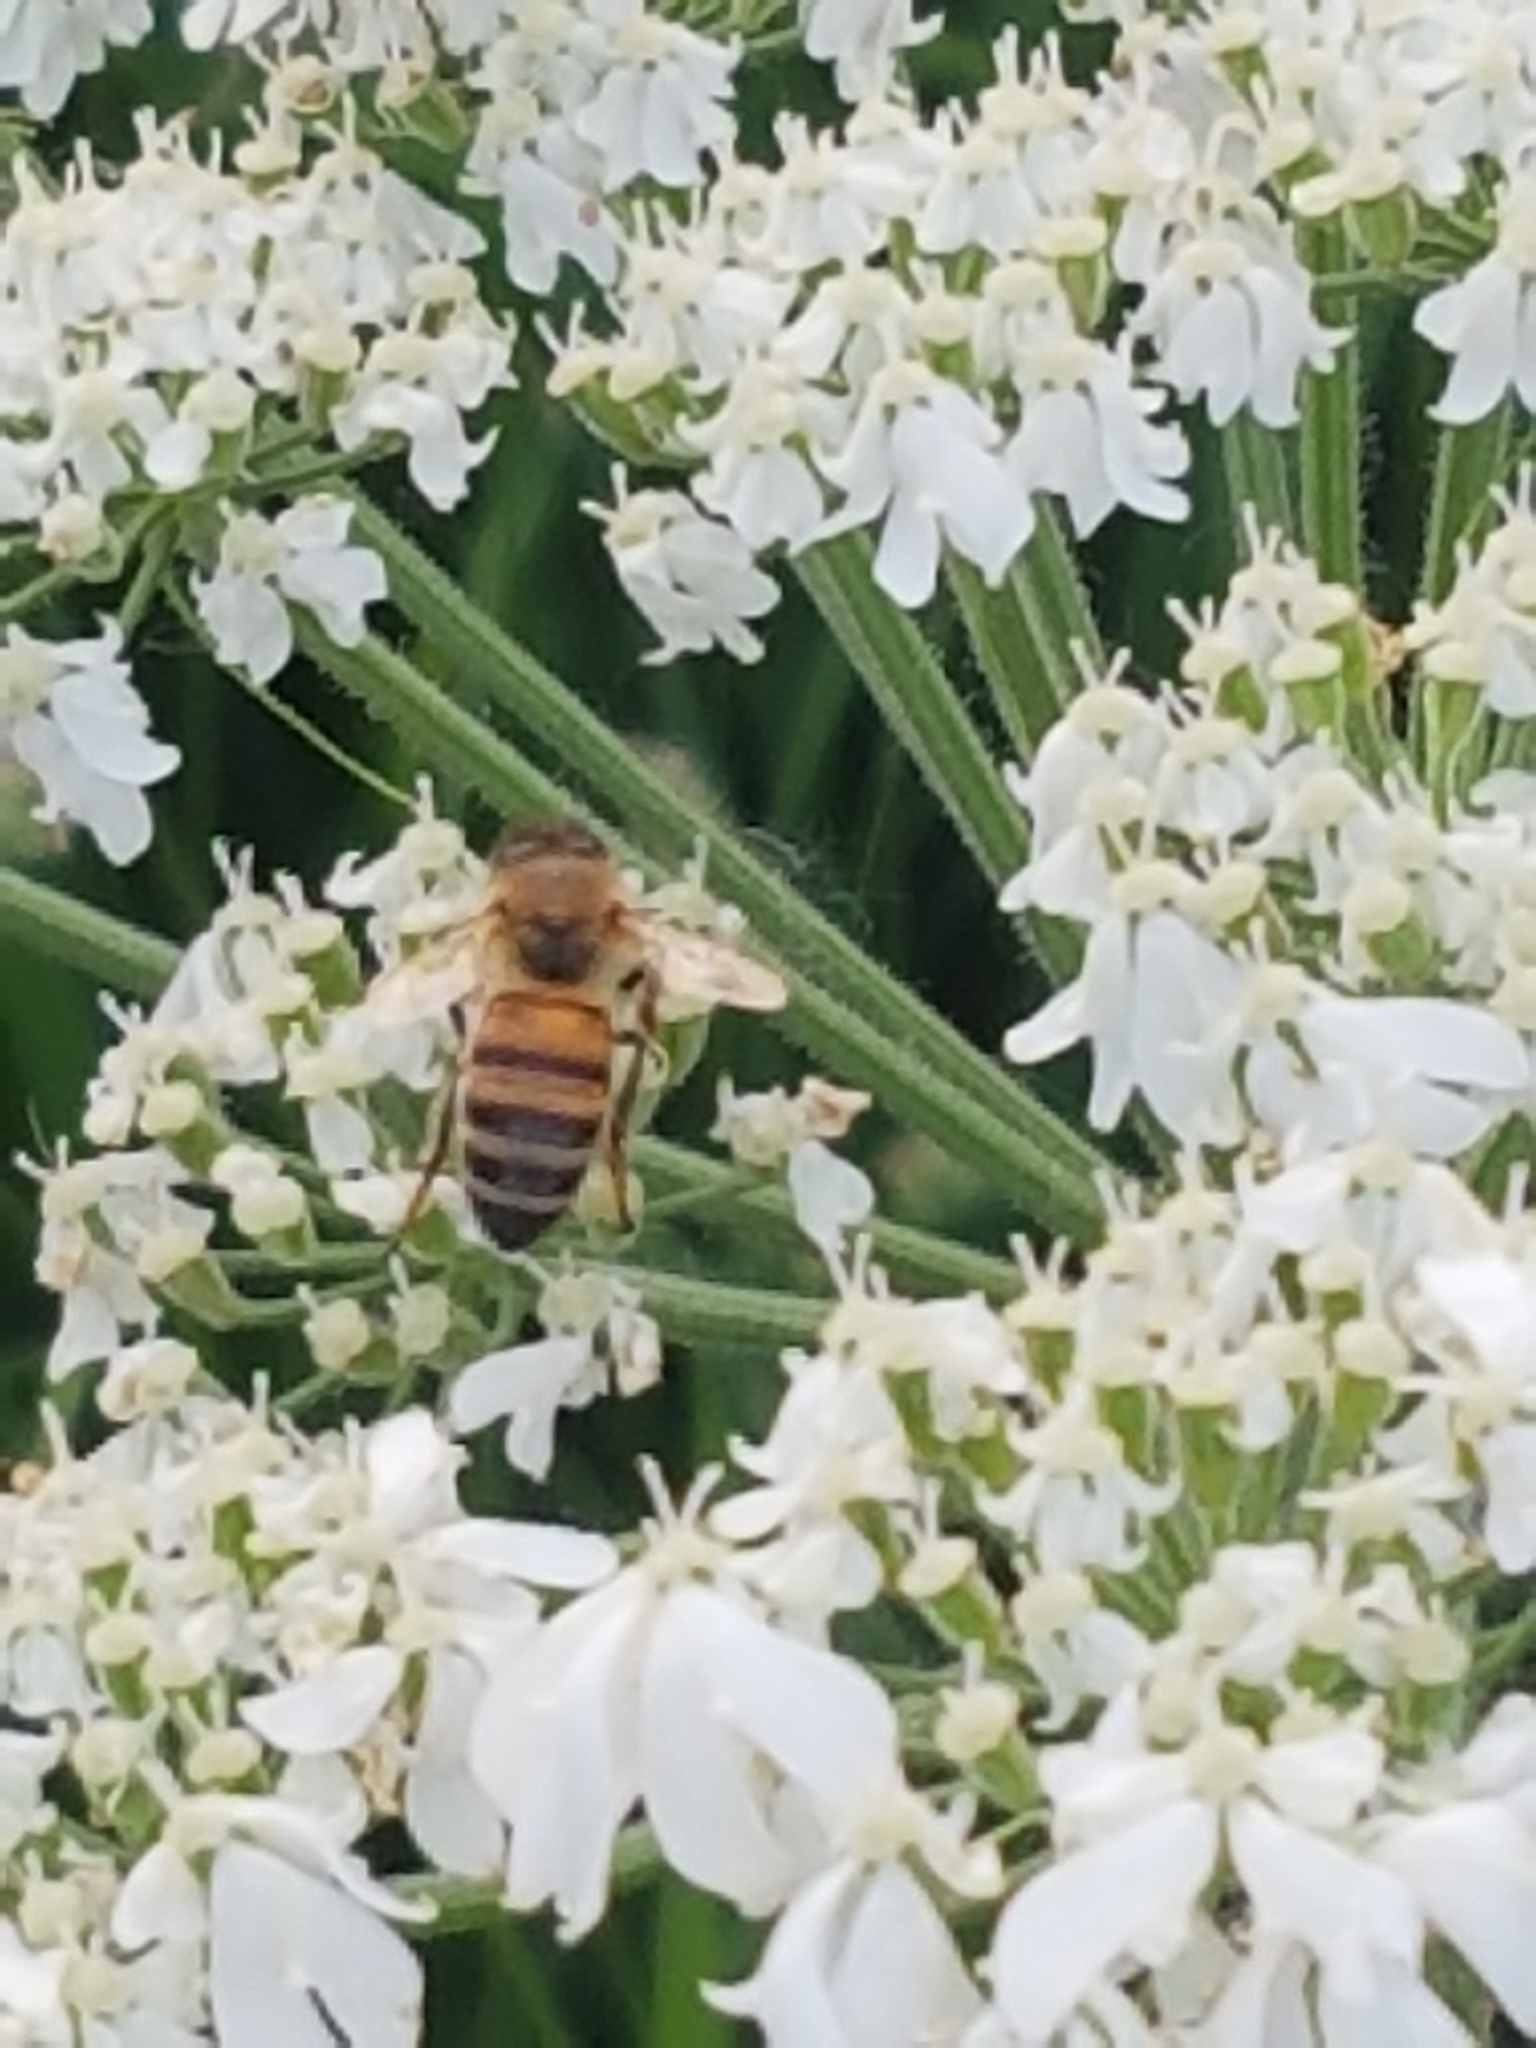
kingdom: Animalia
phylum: Arthropoda
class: Insecta
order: Hymenoptera
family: Apidae
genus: Apis
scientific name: Apis mellifera
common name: Honey bee
